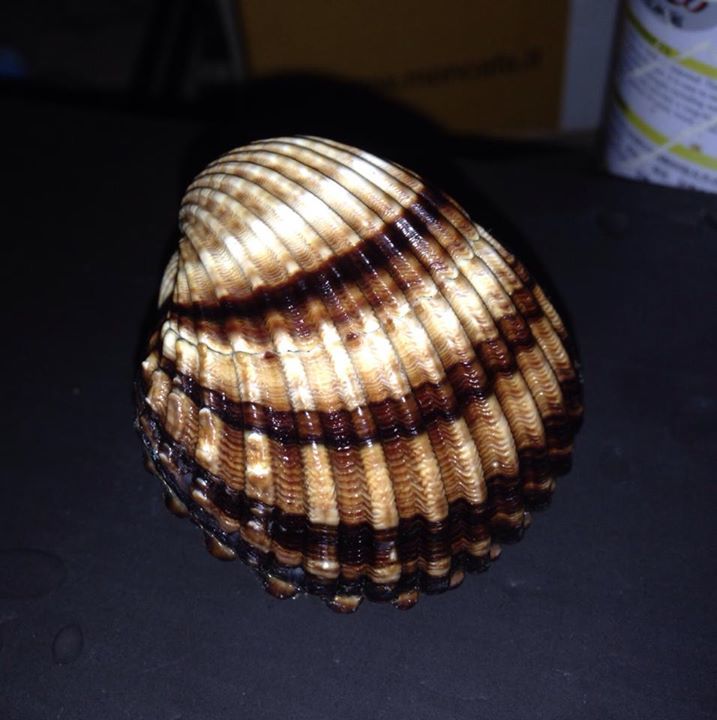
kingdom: Animalia
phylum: Mollusca
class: Bivalvia
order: Cardiida
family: Cardiidae
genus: Acanthocardia
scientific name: Acanthocardia tuberculata
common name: Rough cockle
